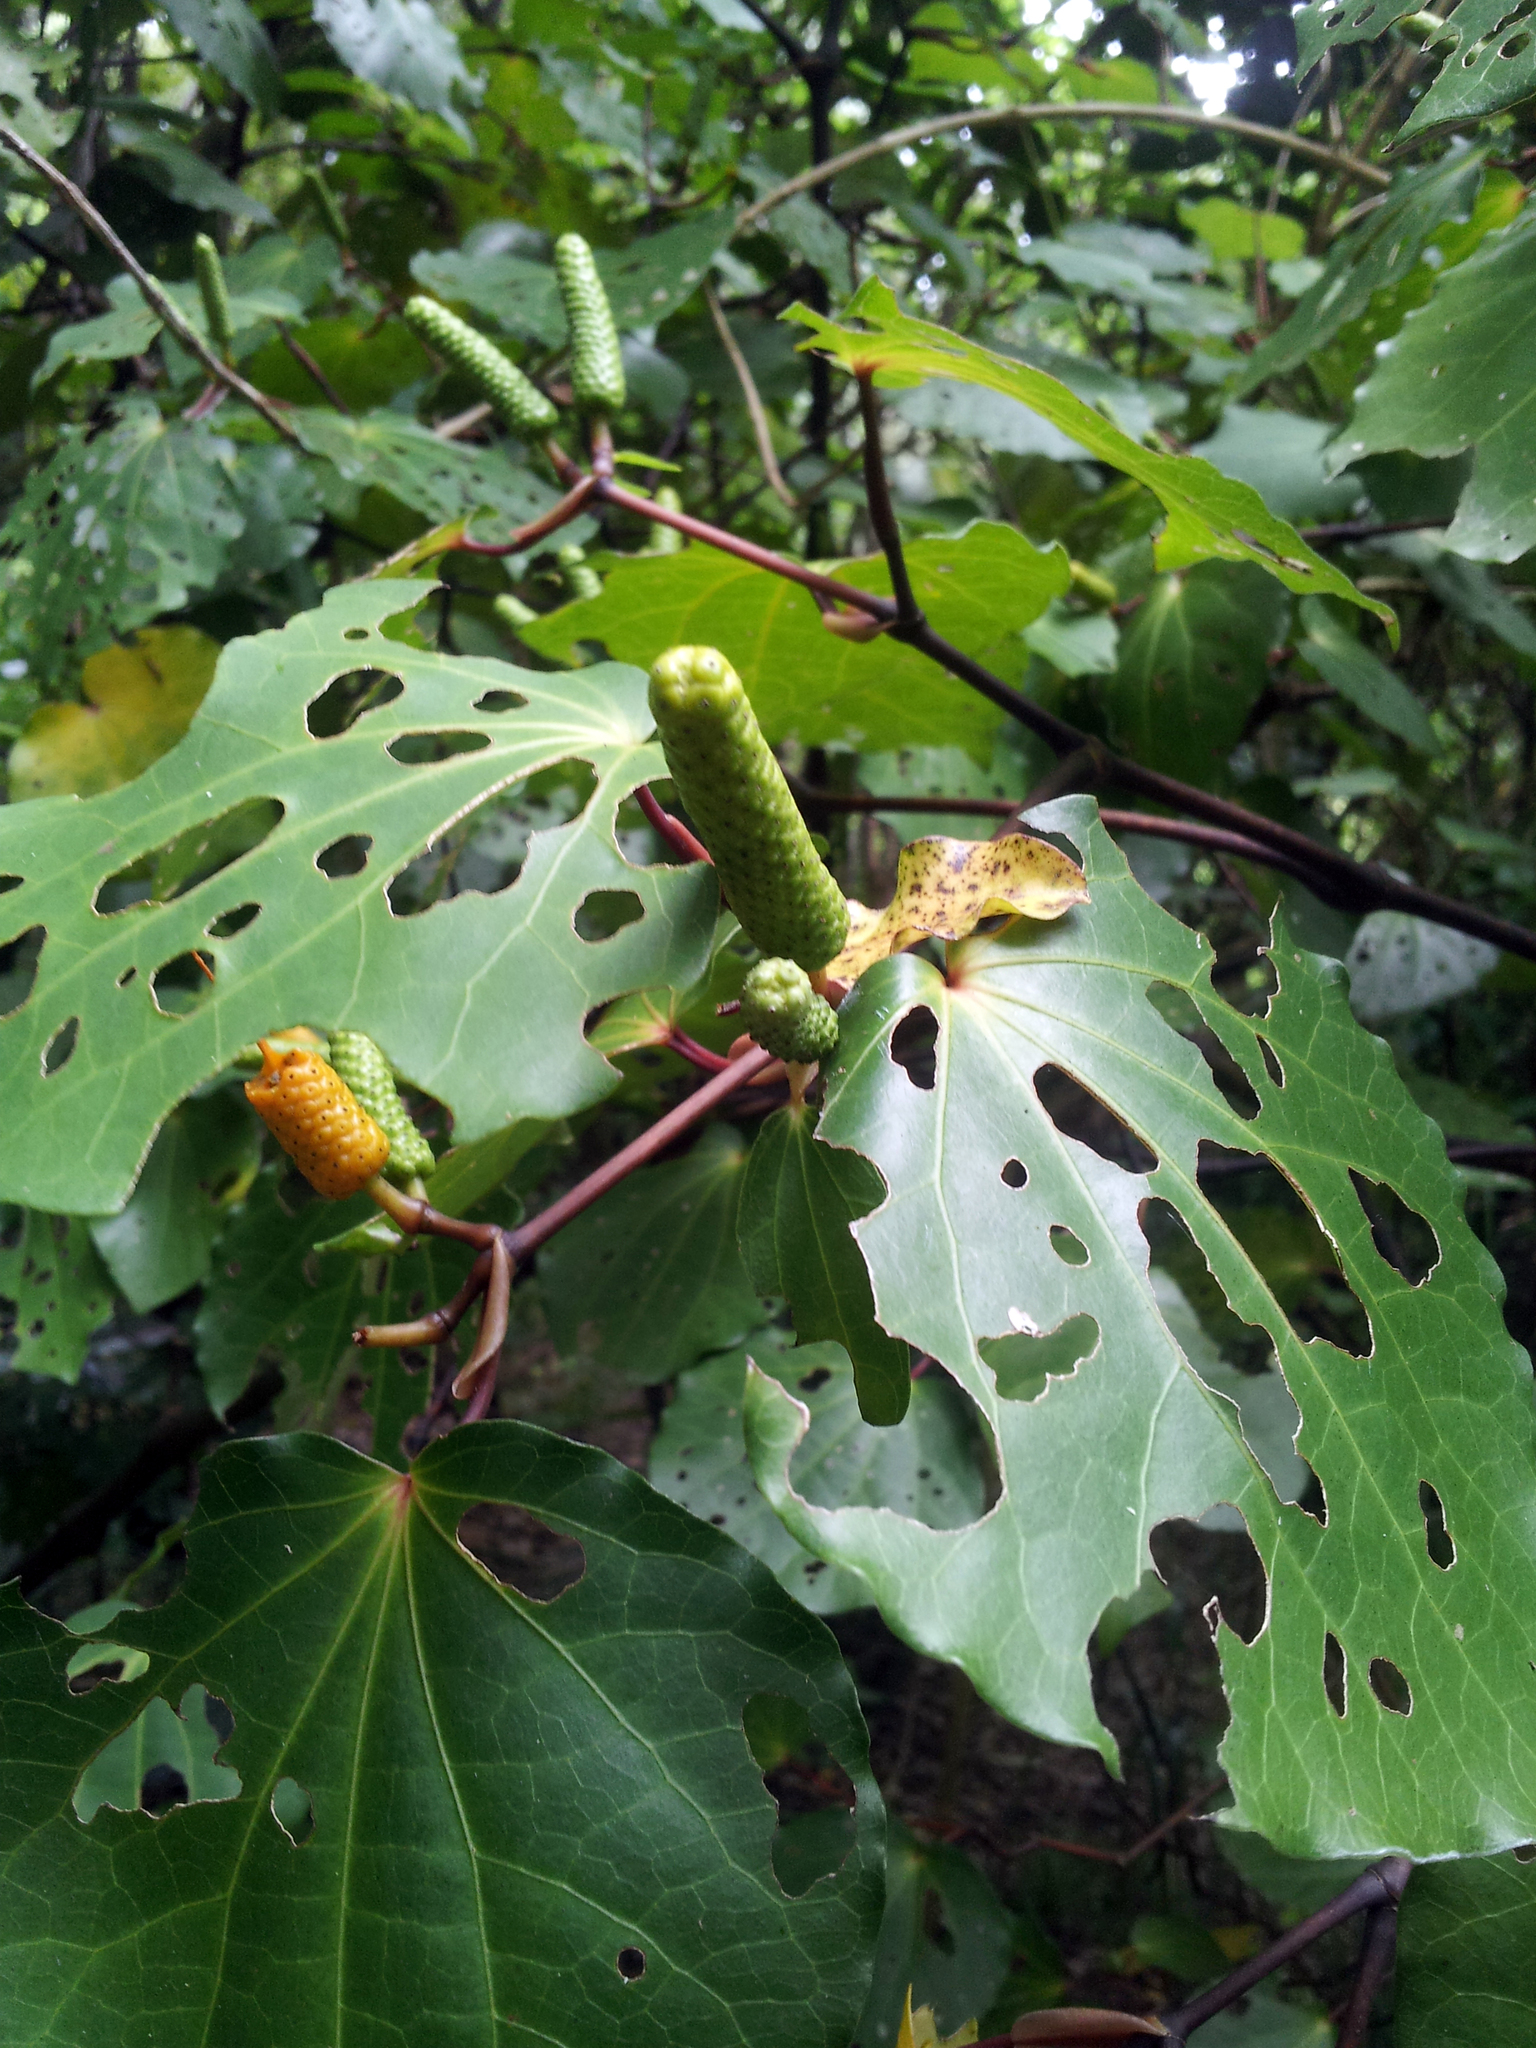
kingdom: Animalia
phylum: Arthropoda
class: Insecta
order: Lepidoptera
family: Geometridae
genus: Cleora
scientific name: Cleora scriptaria
